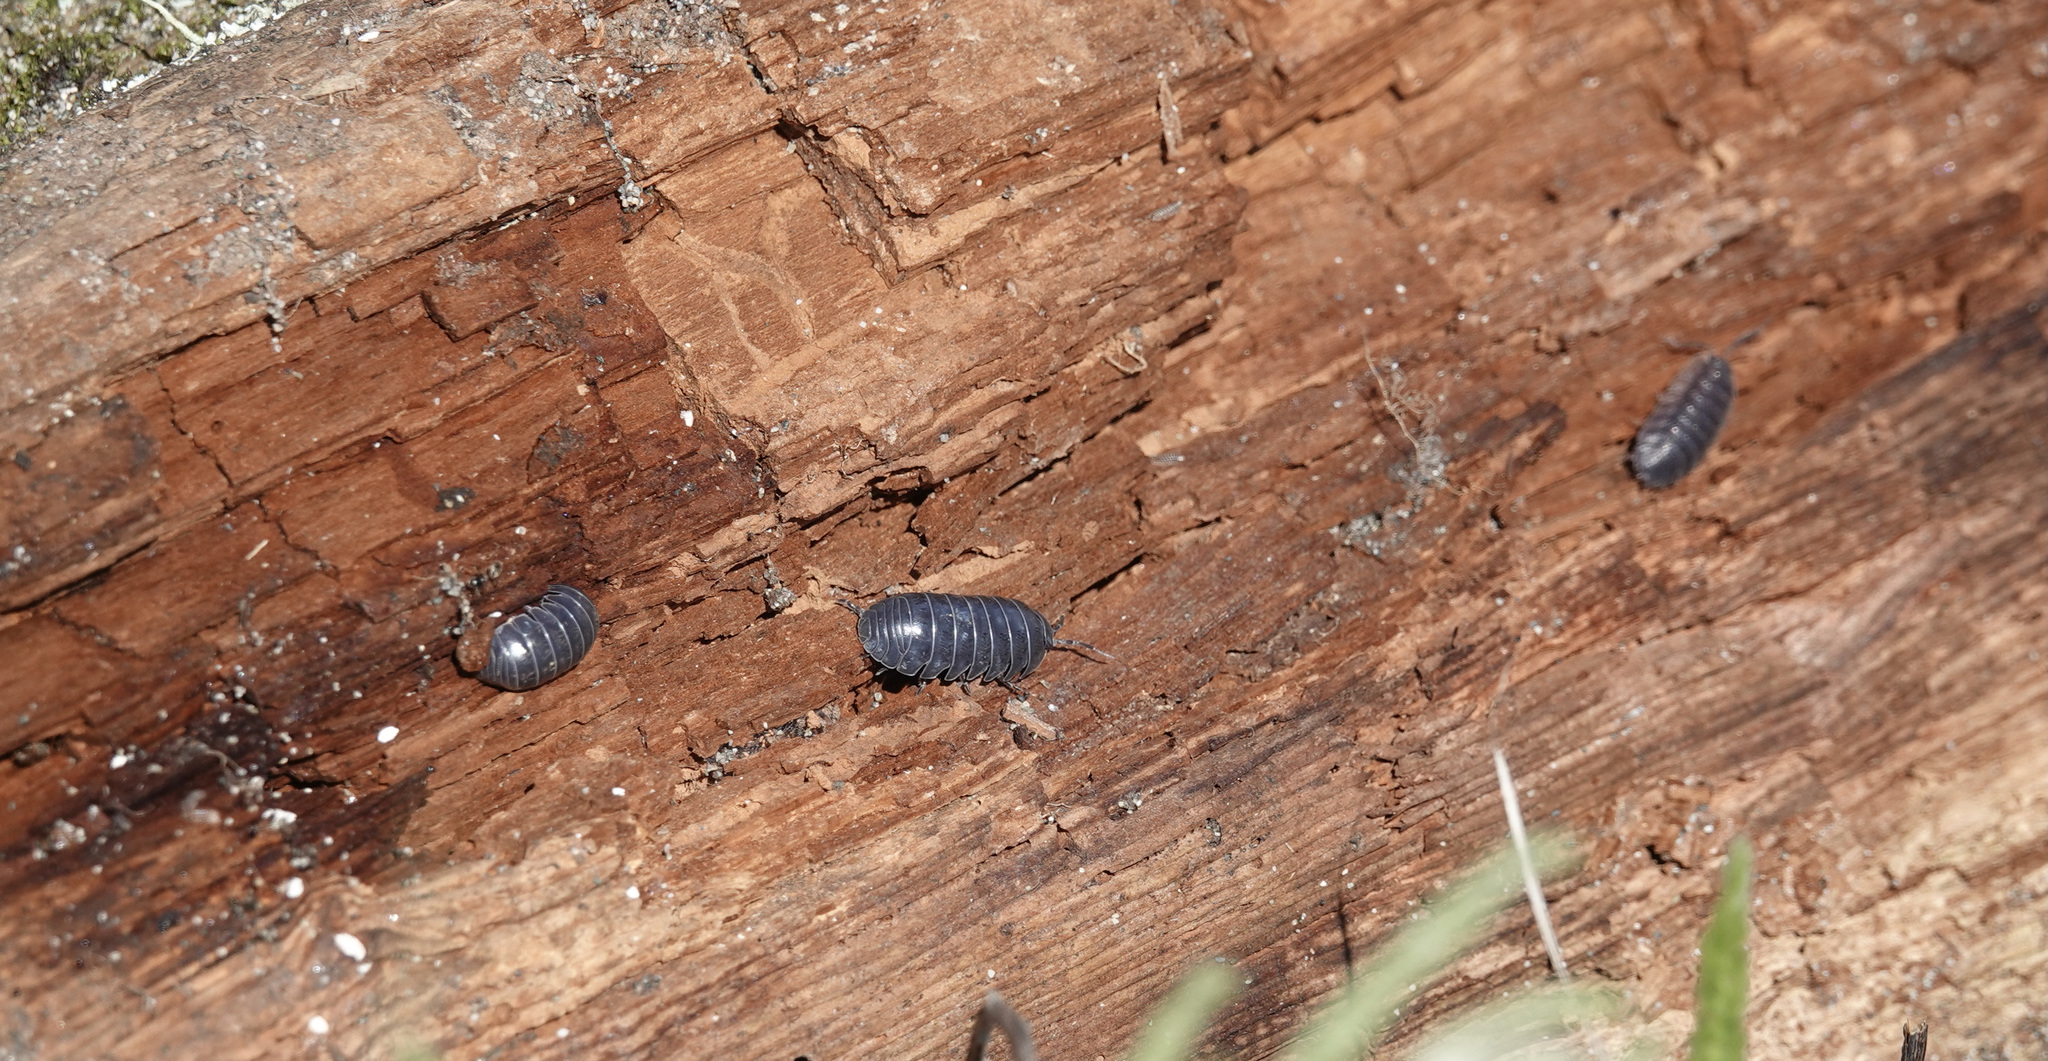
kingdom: Animalia
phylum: Arthropoda
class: Malacostraca
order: Isopoda
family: Armadillidiidae
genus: Armadillidium
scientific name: Armadillidium vulgare
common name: Common pill woodlouse
